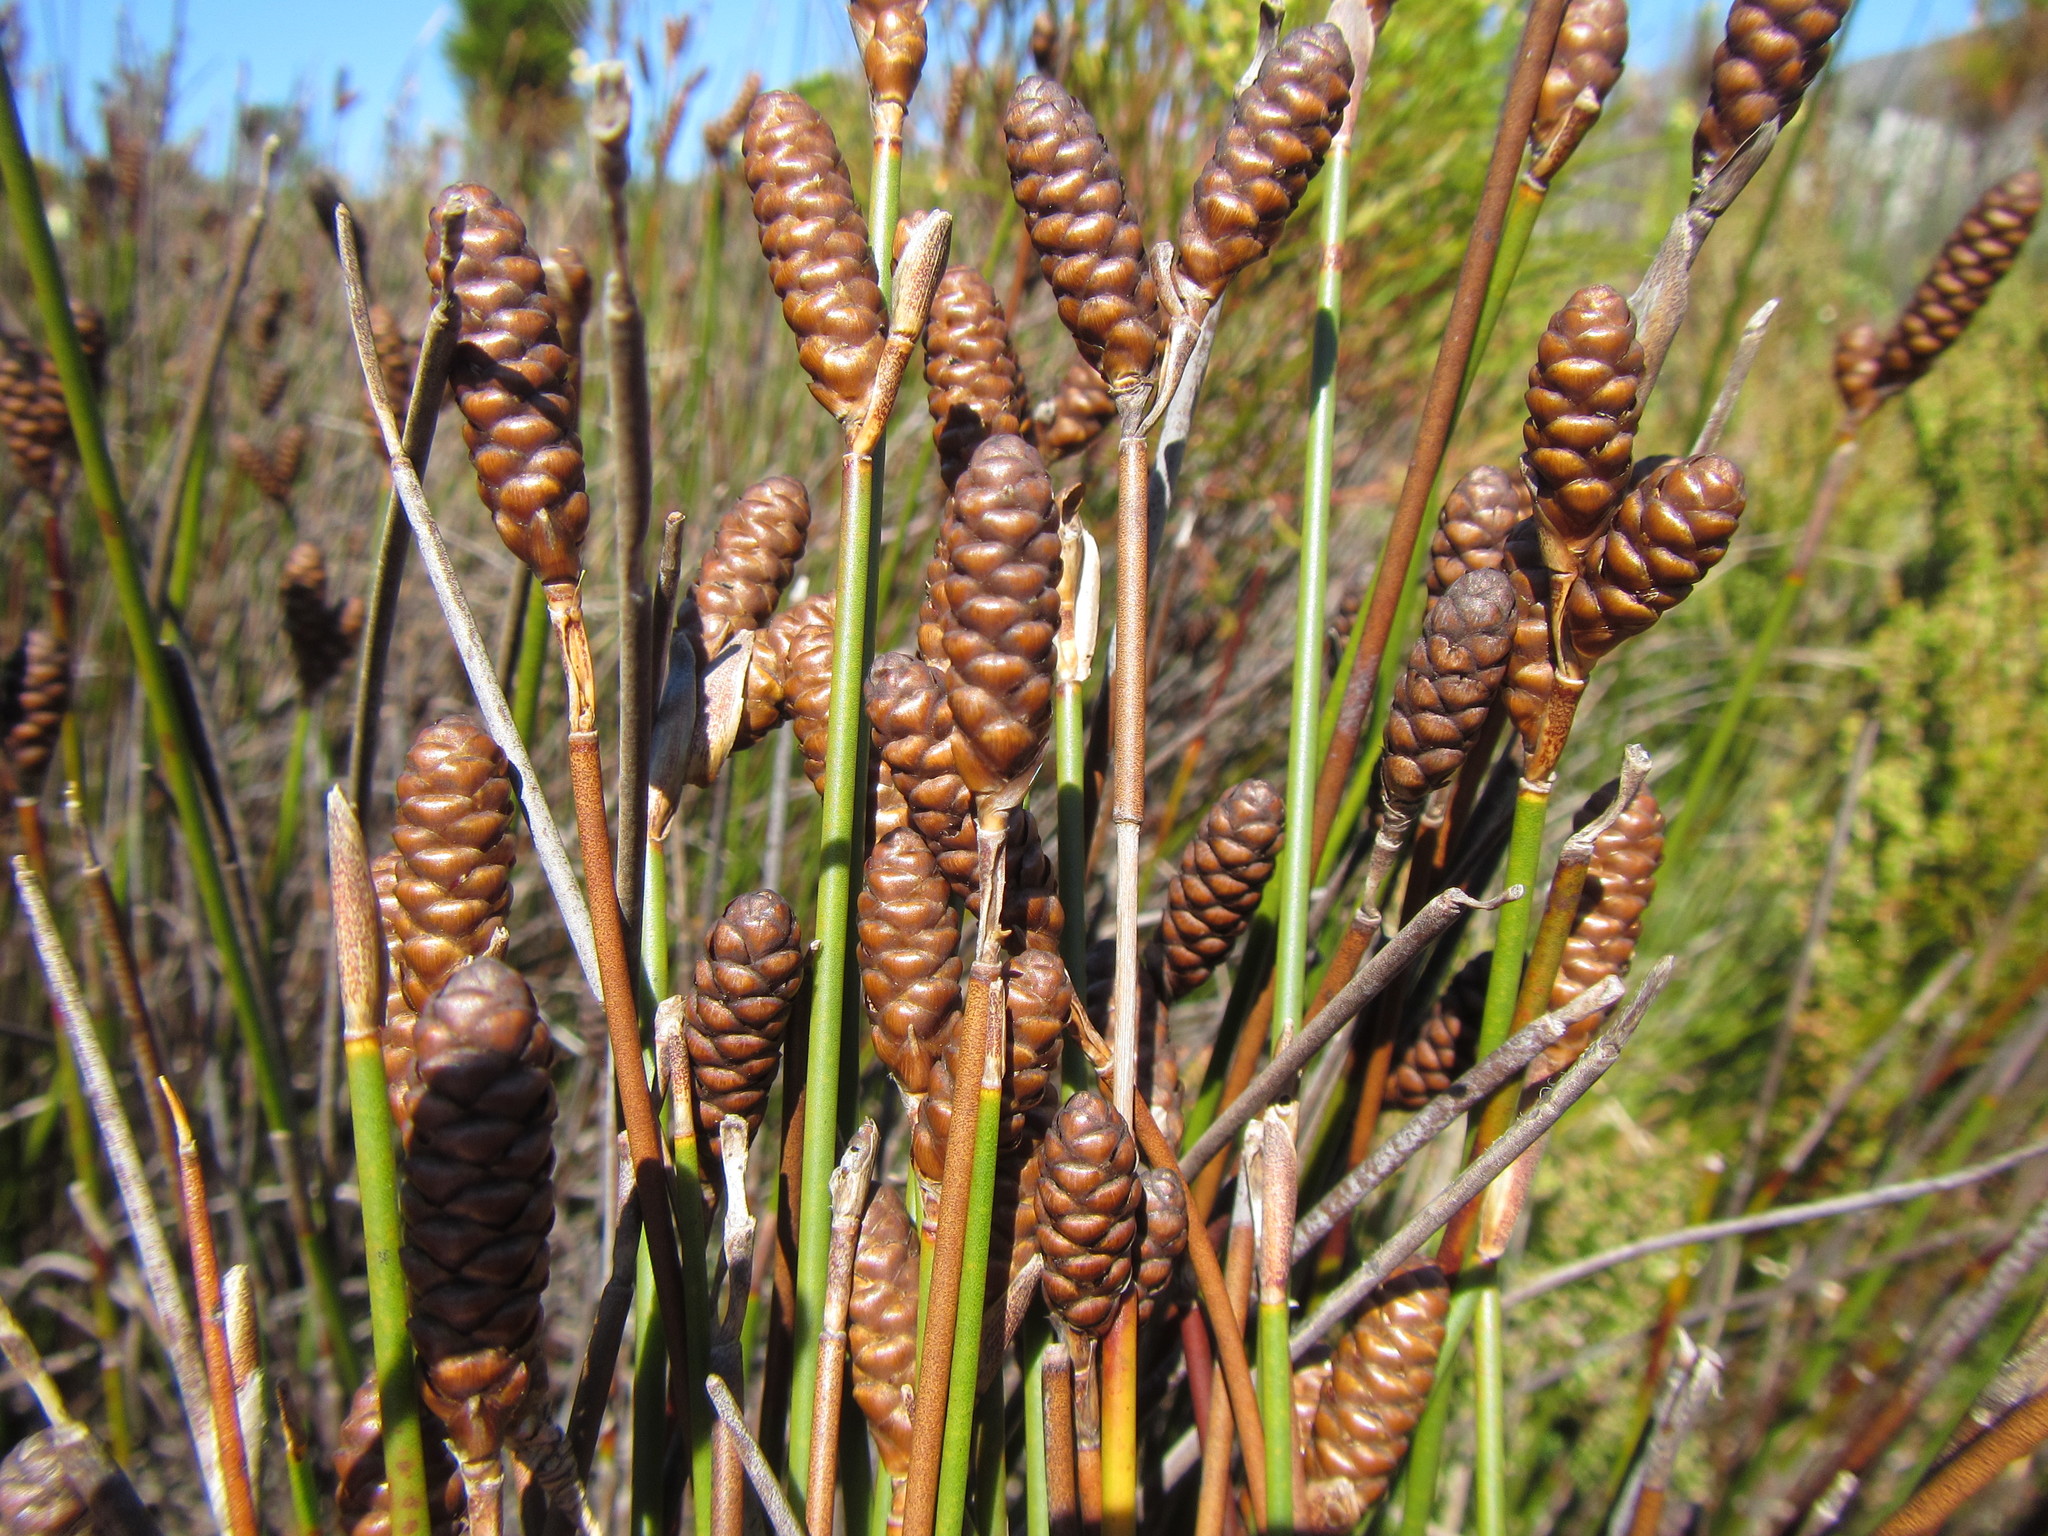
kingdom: Plantae
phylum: Tracheophyta
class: Liliopsida
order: Poales
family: Restionaceae
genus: Nevillea
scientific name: Nevillea obtusissimus
